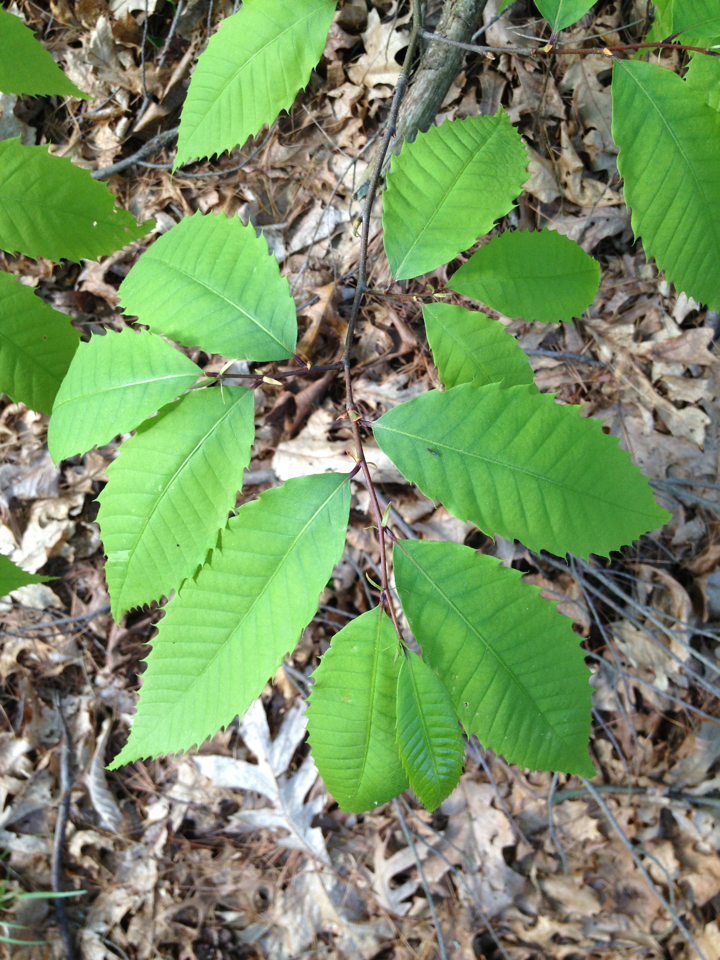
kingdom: Plantae
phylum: Tracheophyta
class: Magnoliopsida
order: Fagales
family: Fagaceae
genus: Castanea
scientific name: Castanea dentata
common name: American chestnut
